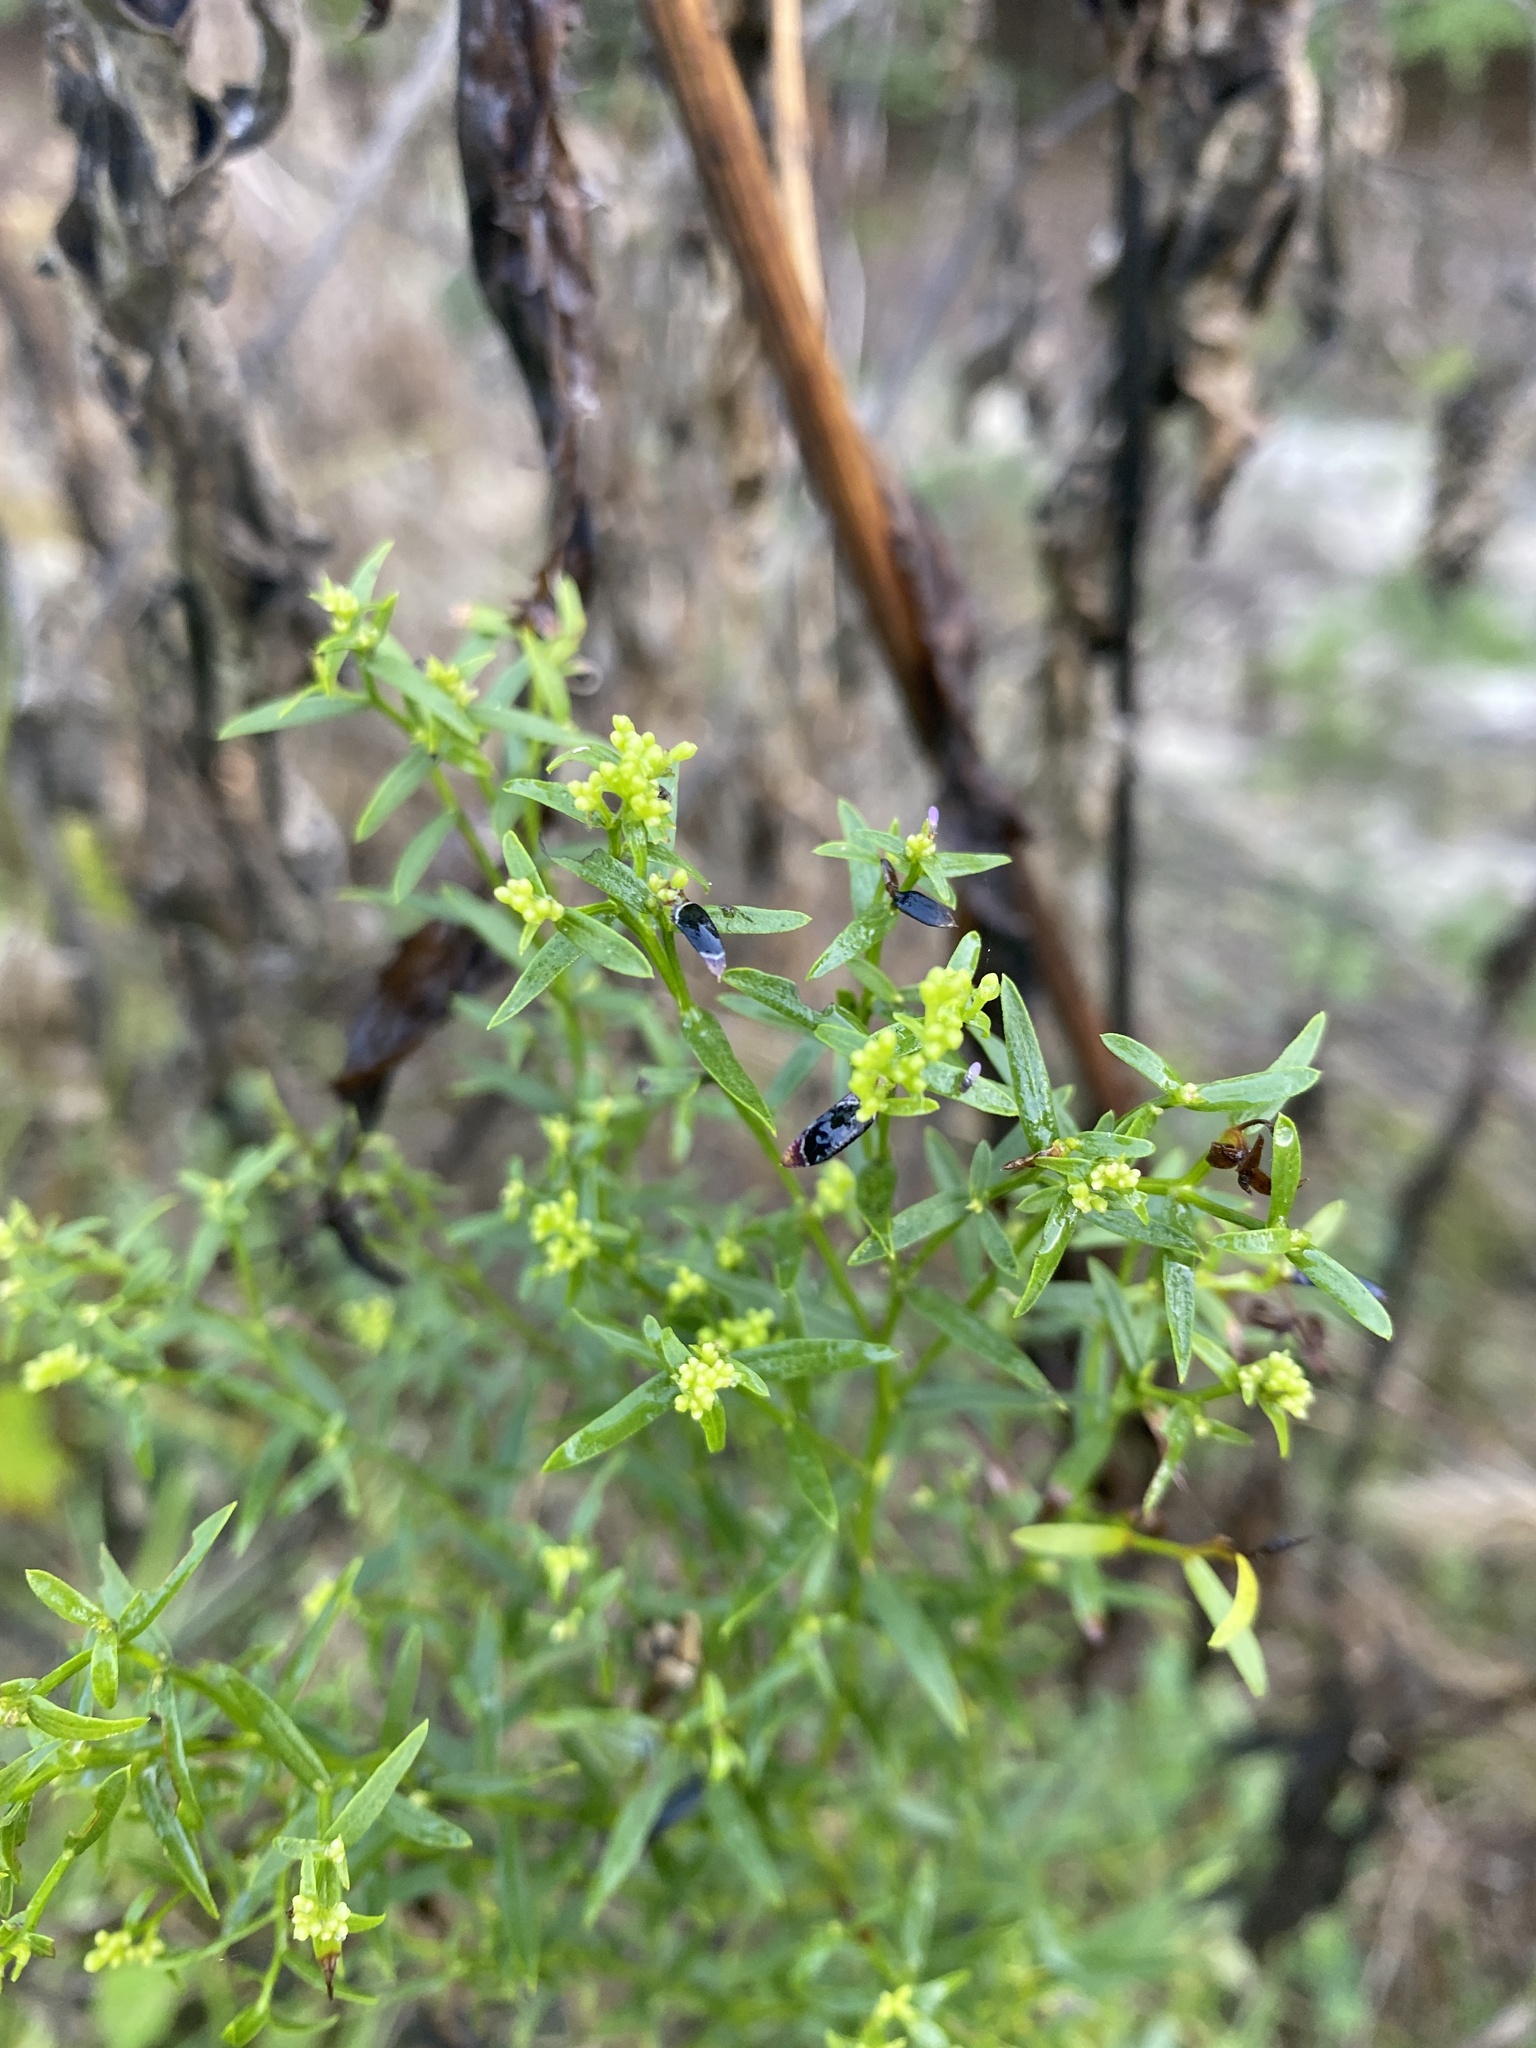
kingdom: Plantae
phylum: Tracheophyta
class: Magnoliopsida
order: Asterales
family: Asteraceae
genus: Euthamia
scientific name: Euthamia leptocephala
